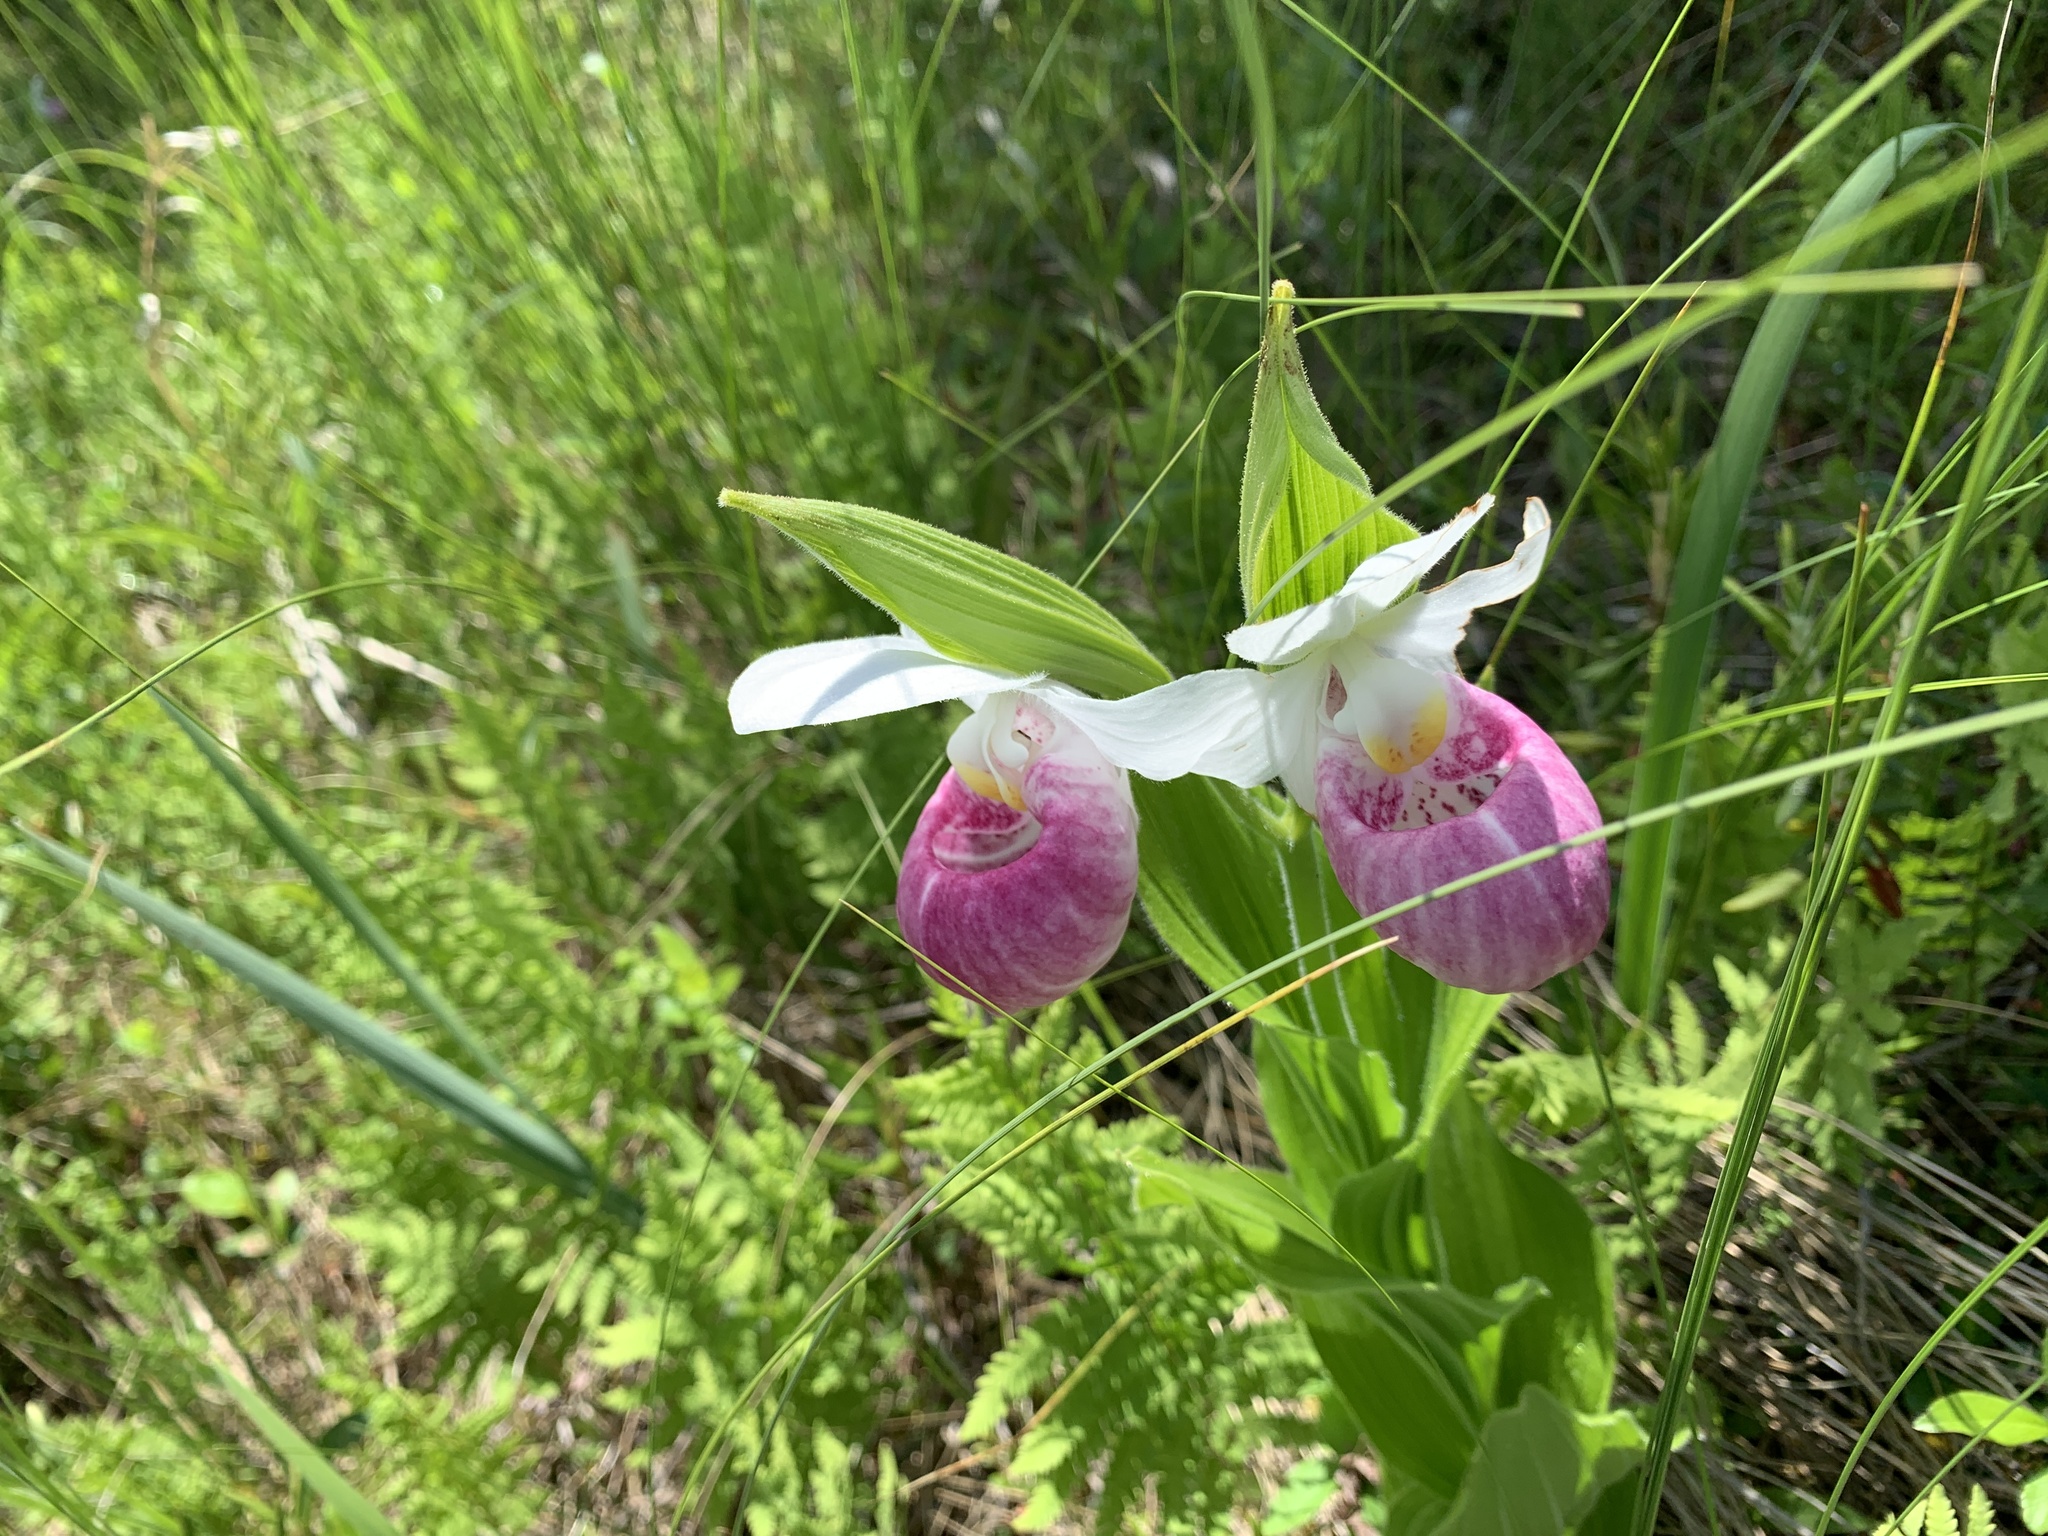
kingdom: Plantae
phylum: Tracheophyta
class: Liliopsida
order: Asparagales
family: Orchidaceae
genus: Cypripedium
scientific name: Cypripedium reginae
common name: Queen lady's-slipper
